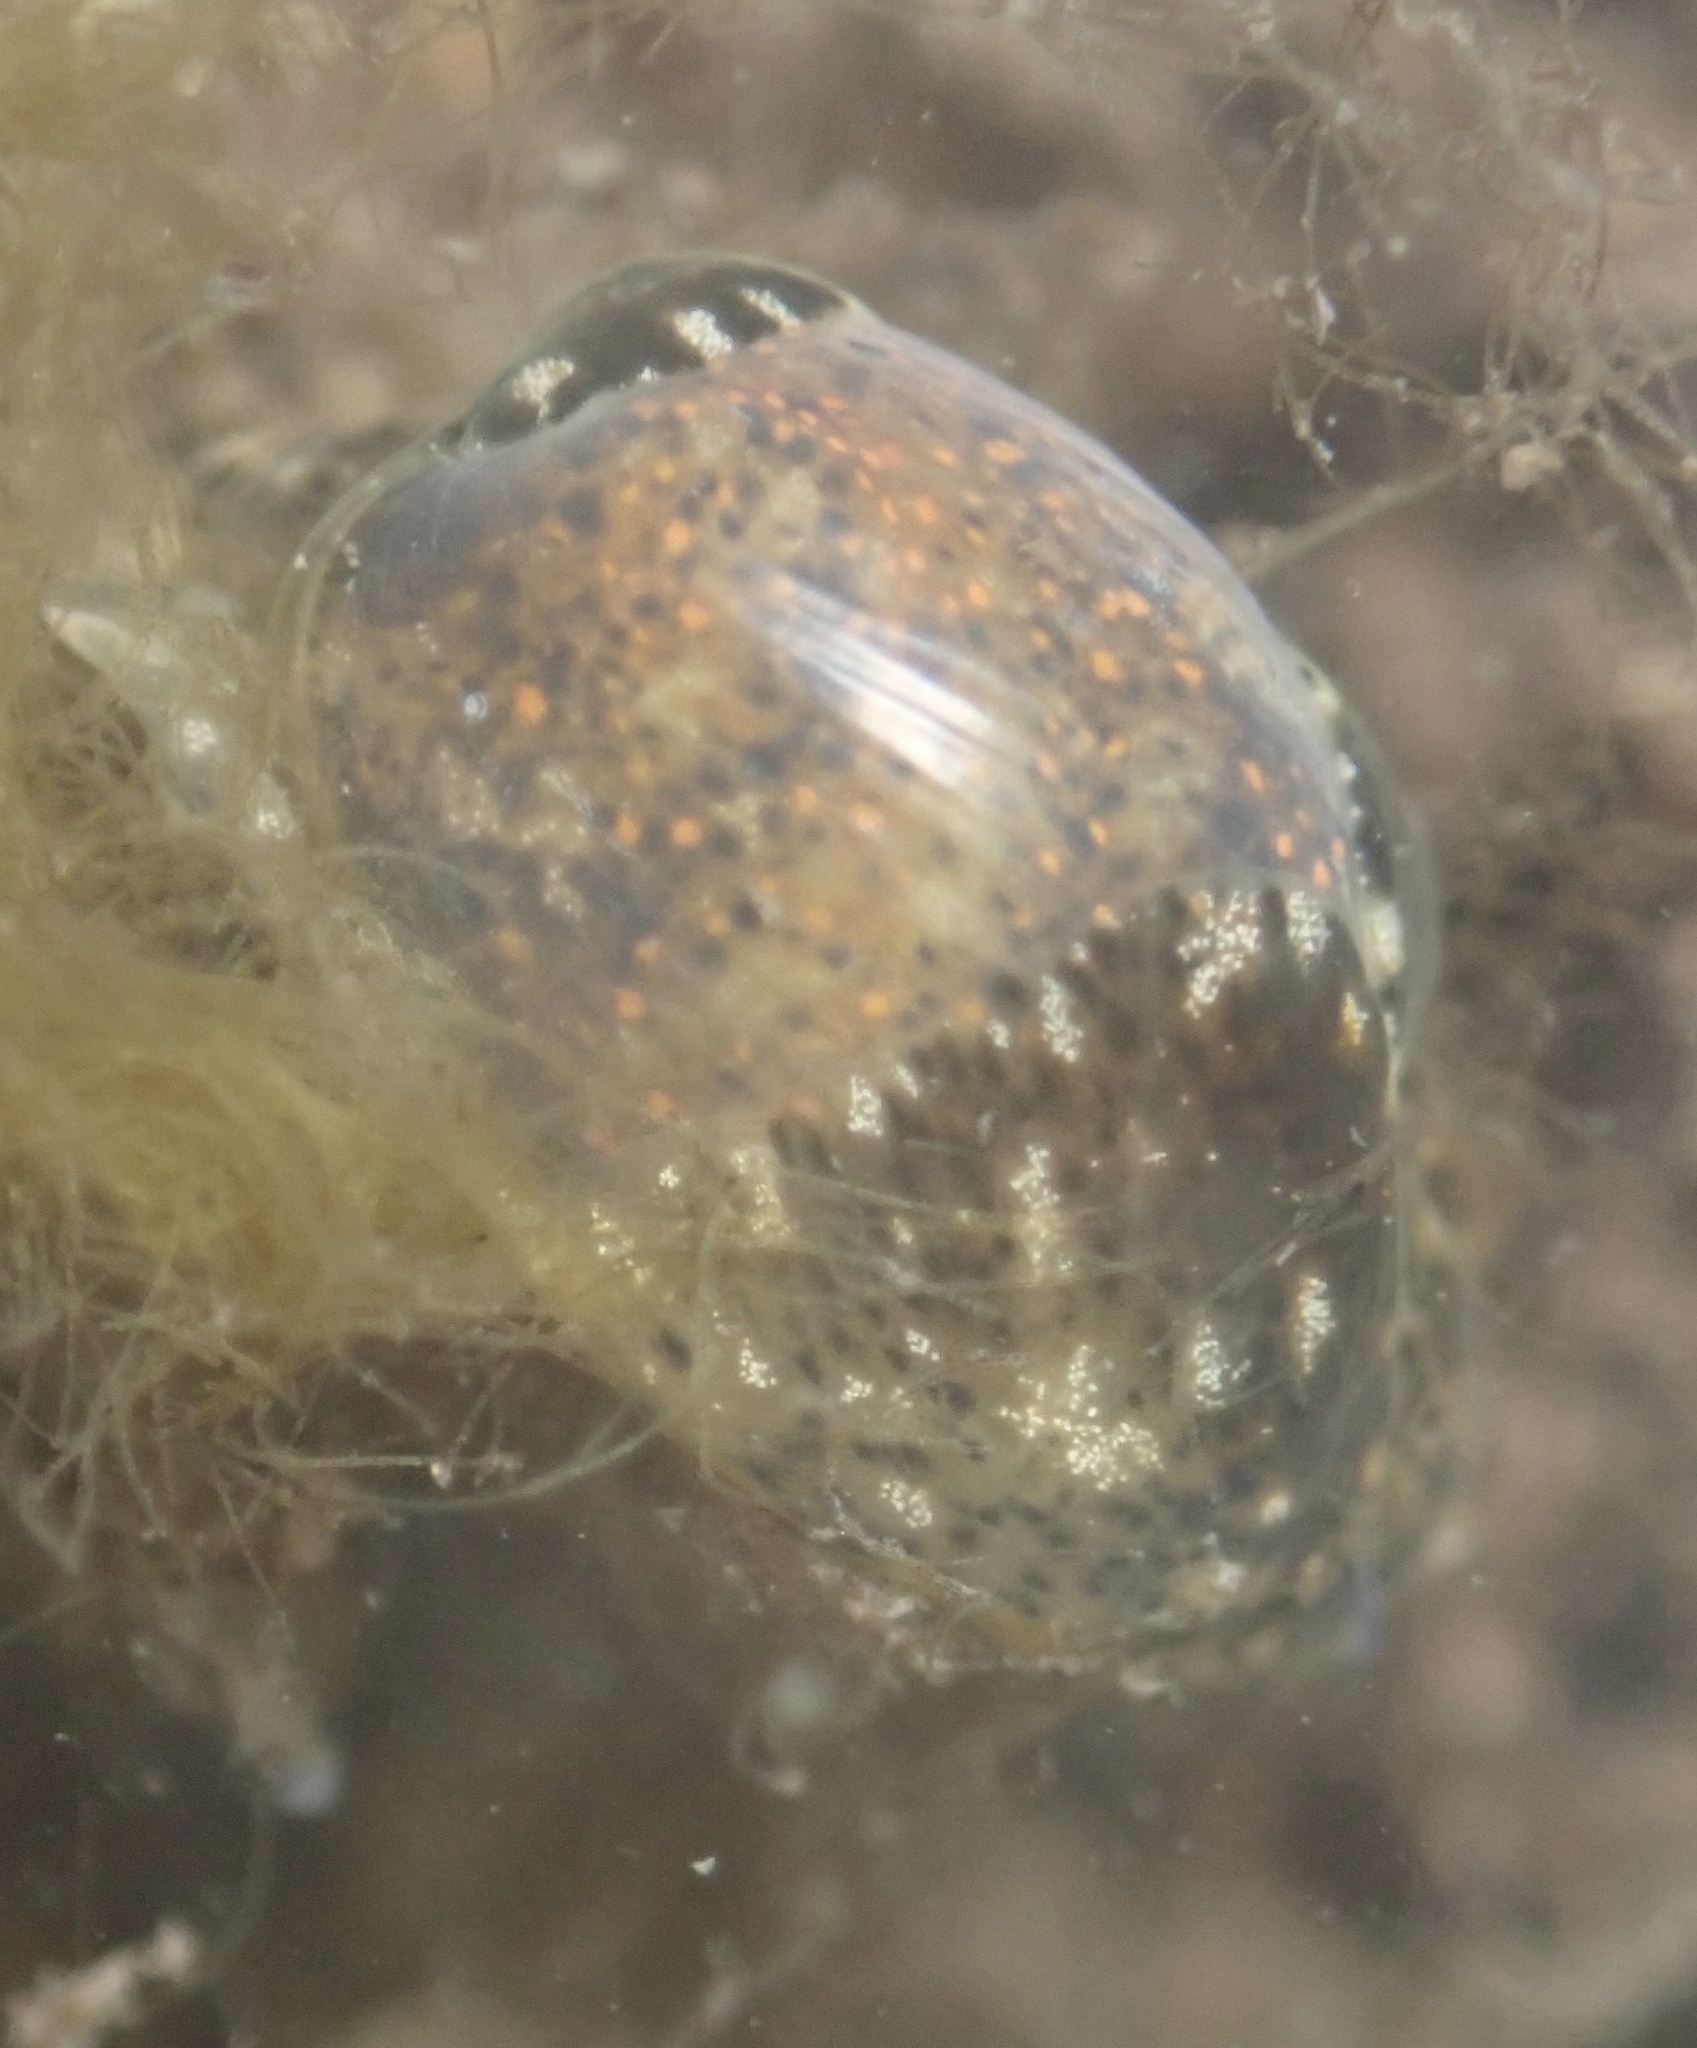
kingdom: Animalia
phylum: Mollusca
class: Gastropoda
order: Cephalaspidea
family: Haminoeidae
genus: Haloa
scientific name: Haloa japonica
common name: Japanese bubble snail
